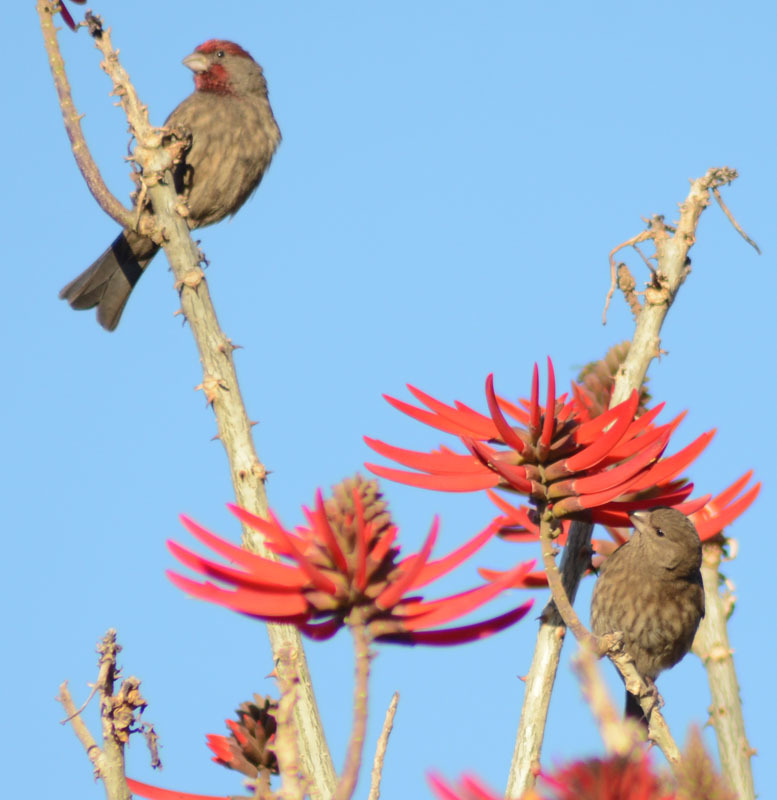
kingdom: Animalia
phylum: Chordata
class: Aves
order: Passeriformes
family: Fringillidae
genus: Haemorhous
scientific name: Haemorhous mexicanus
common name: House finch
